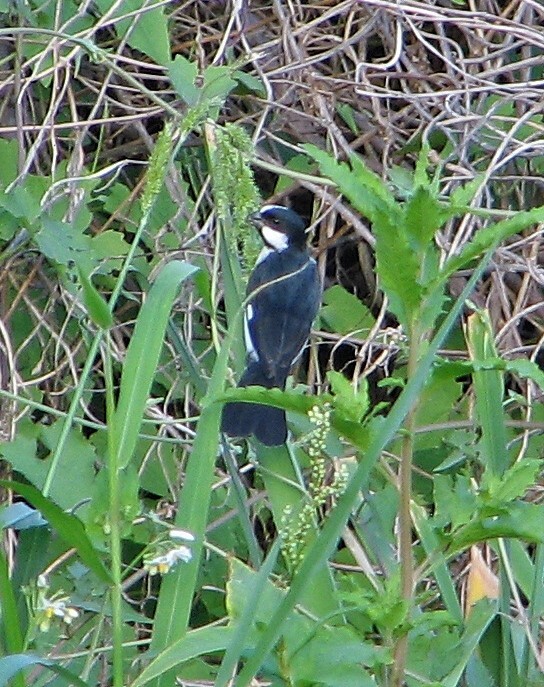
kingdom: Animalia
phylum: Chordata
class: Aves
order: Passeriformes
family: Thraupidae
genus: Sporophila
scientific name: Sporophila lineola
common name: Lined seedeater
